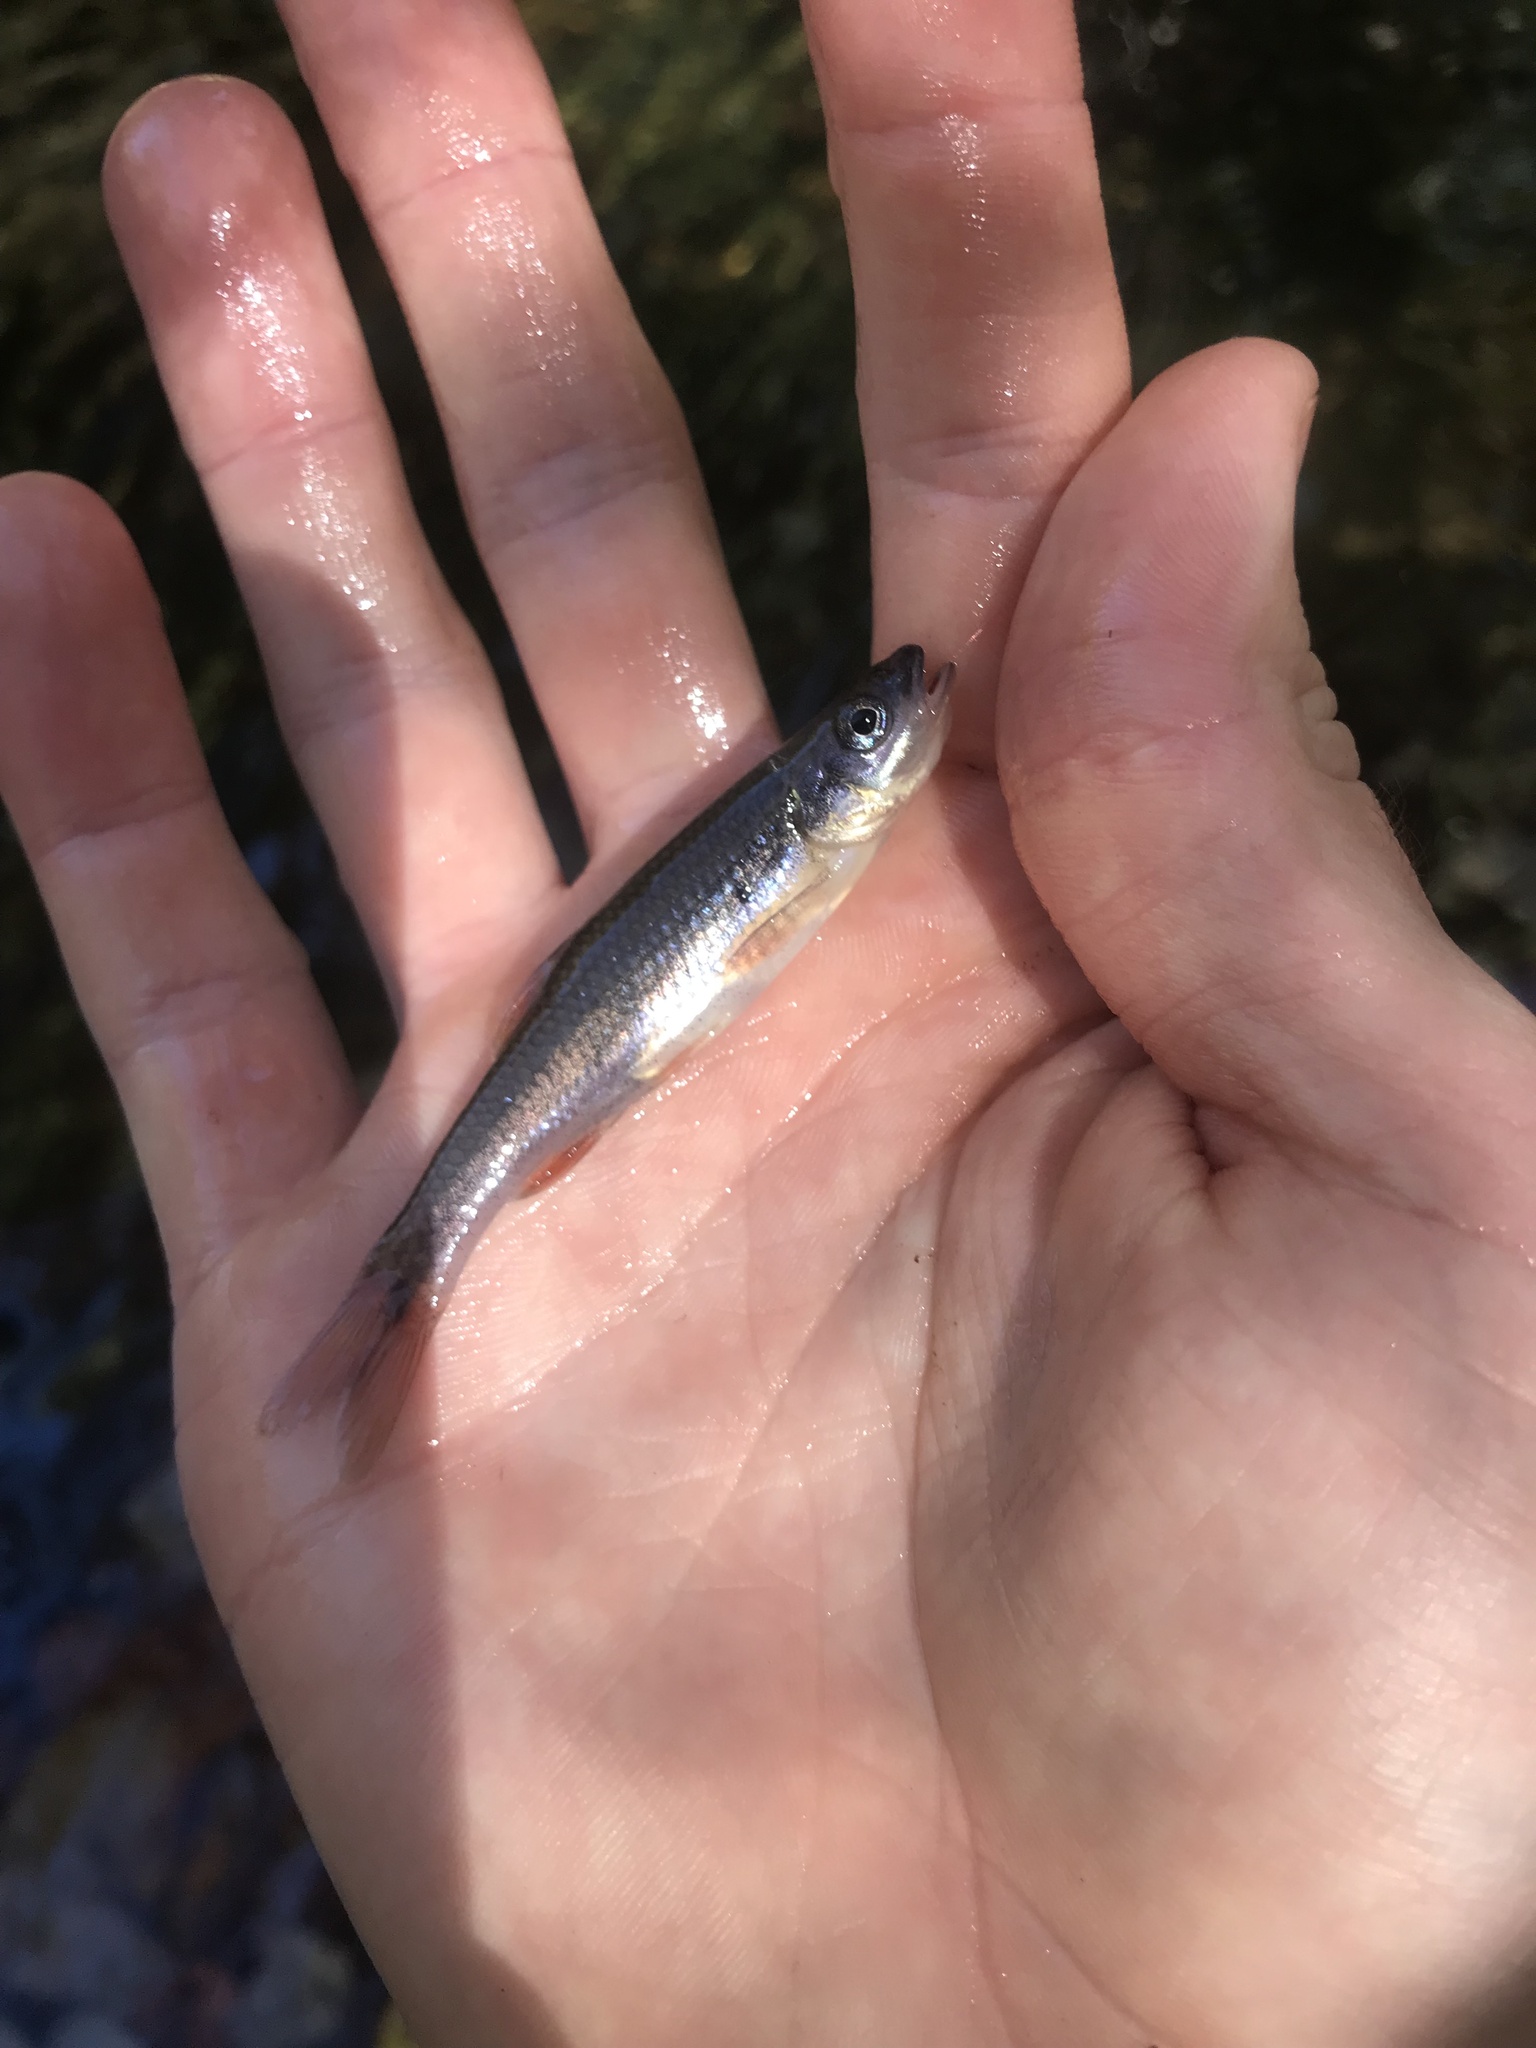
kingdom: Animalia
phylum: Chordata
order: Cypriniformes
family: Cyprinidae
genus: Notropis
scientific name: Notropis lutipinnis
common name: Yellowfin shiner
